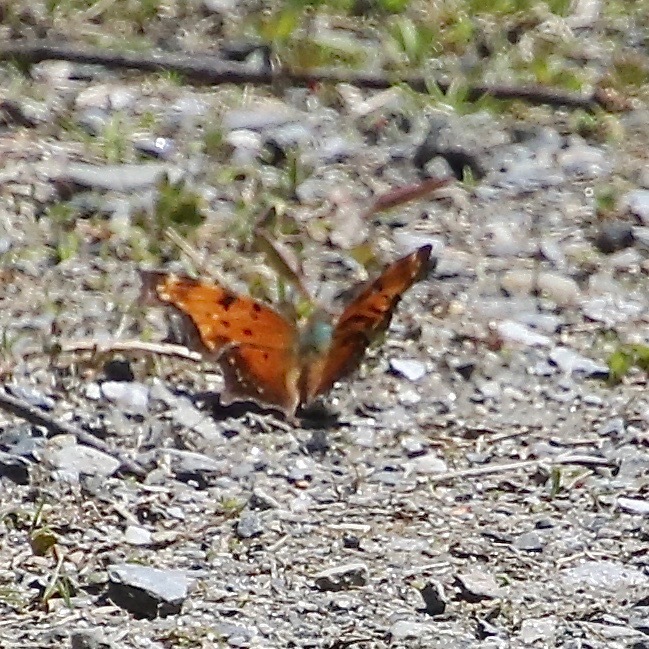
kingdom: Animalia
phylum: Arthropoda
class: Insecta
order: Lepidoptera
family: Nymphalidae
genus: Polygonia
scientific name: Polygonia progne
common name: Gray comma
